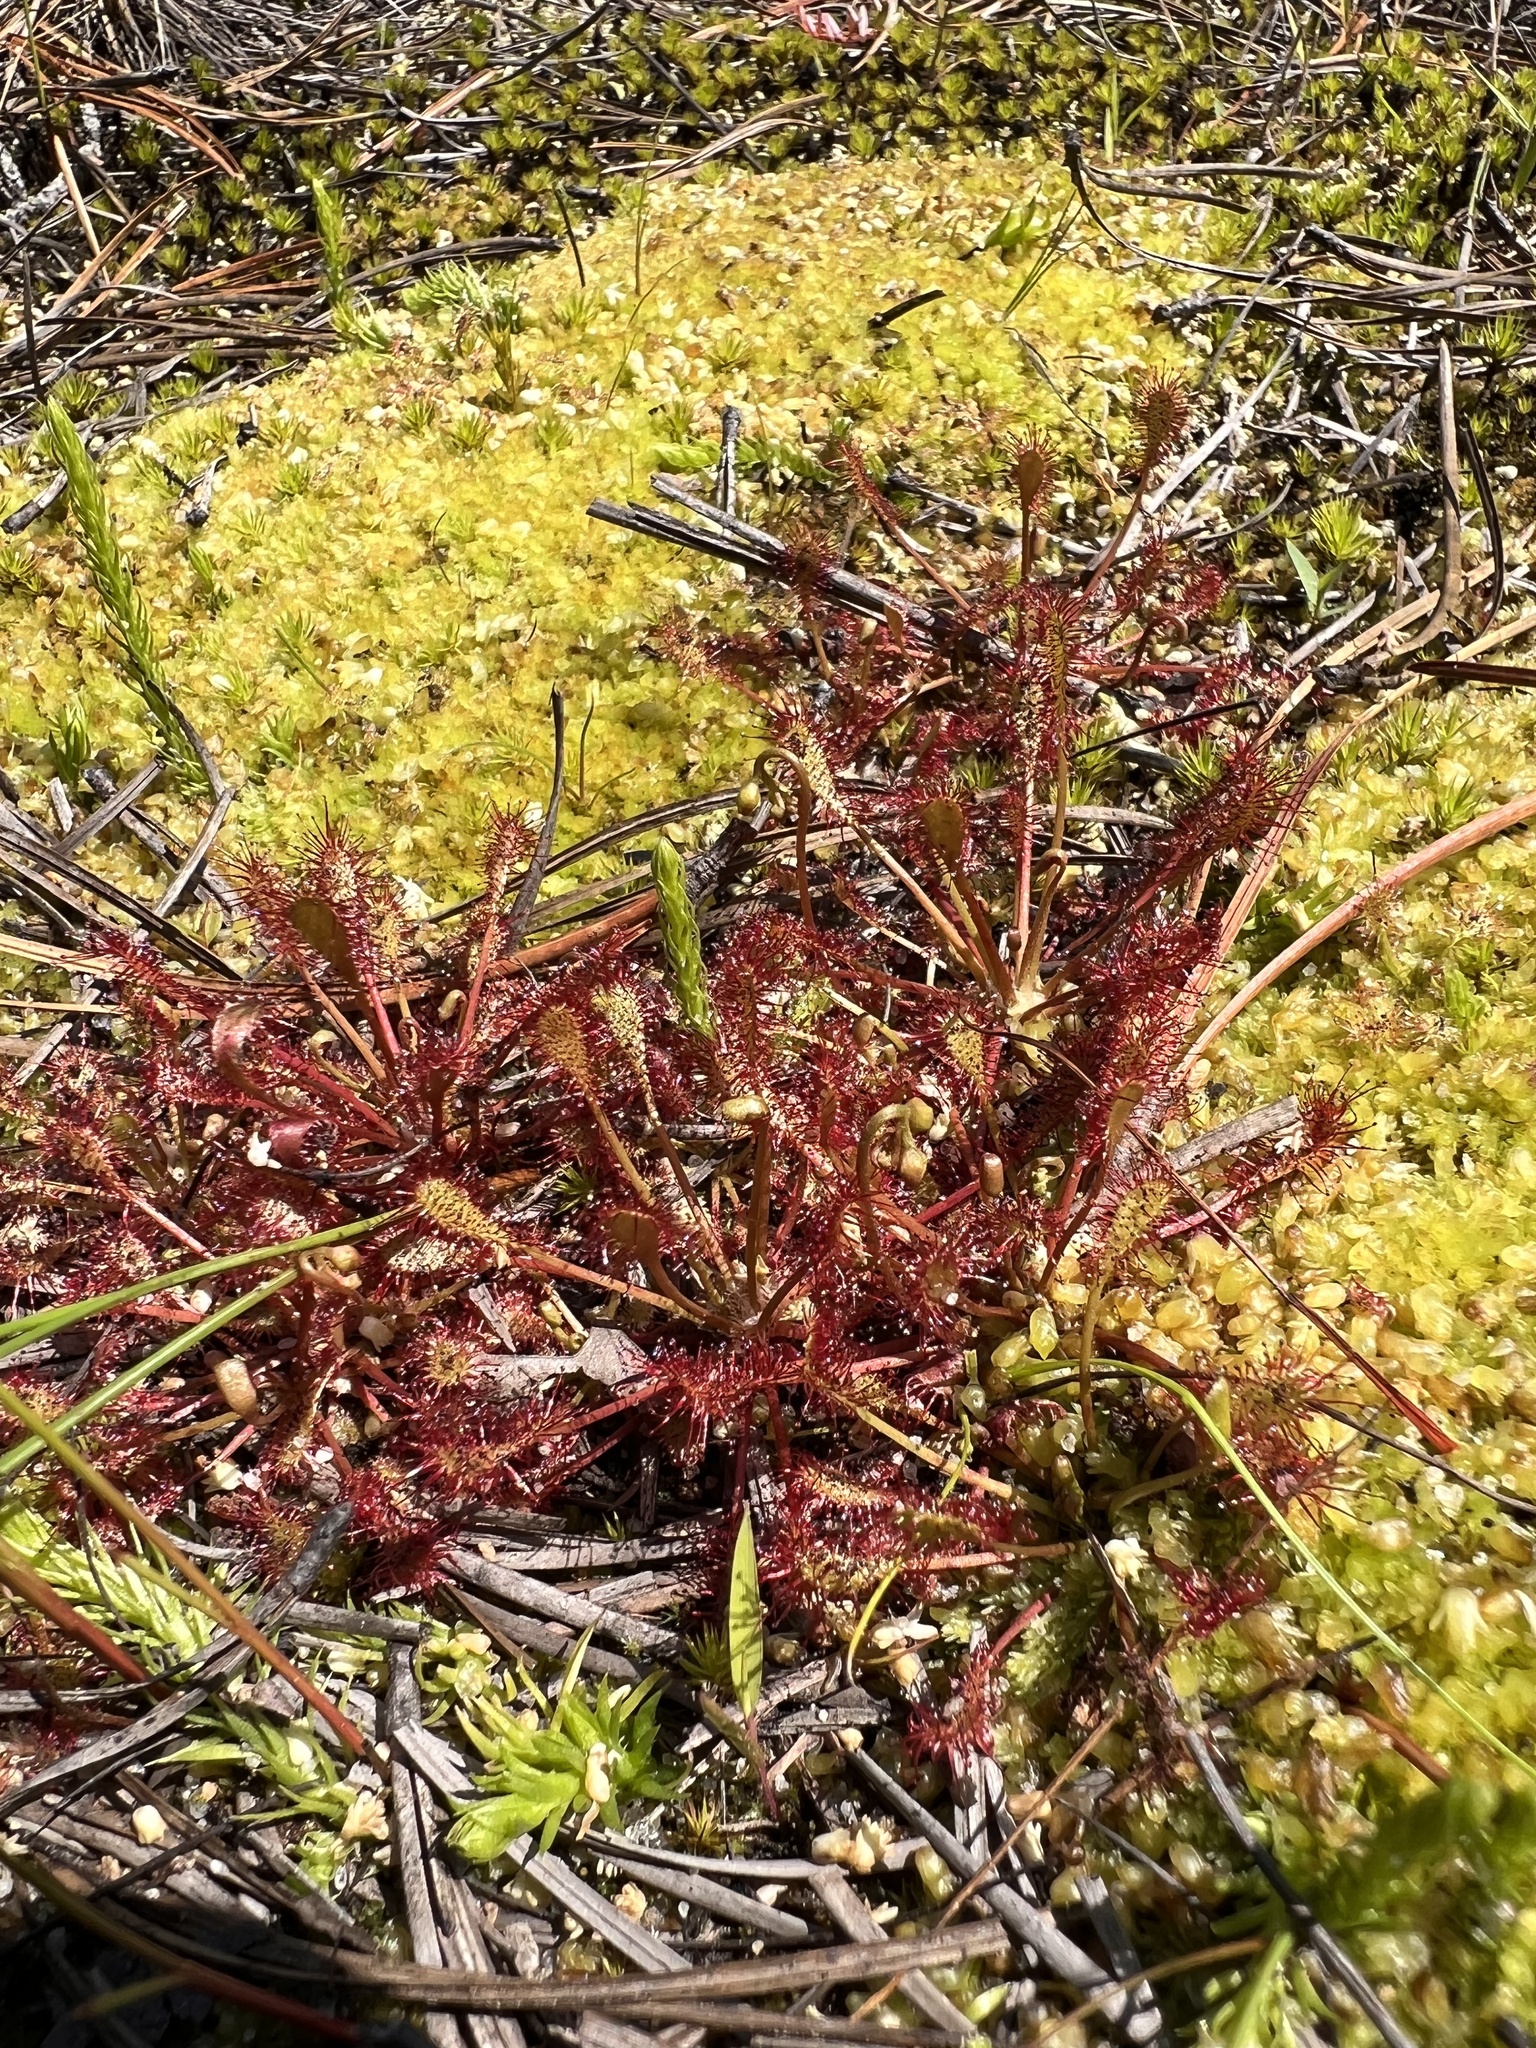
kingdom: Plantae
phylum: Tracheophyta
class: Magnoliopsida
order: Caryophyllales
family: Droseraceae
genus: Drosera
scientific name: Drosera intermedia
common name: Oblong-leaved sundew
